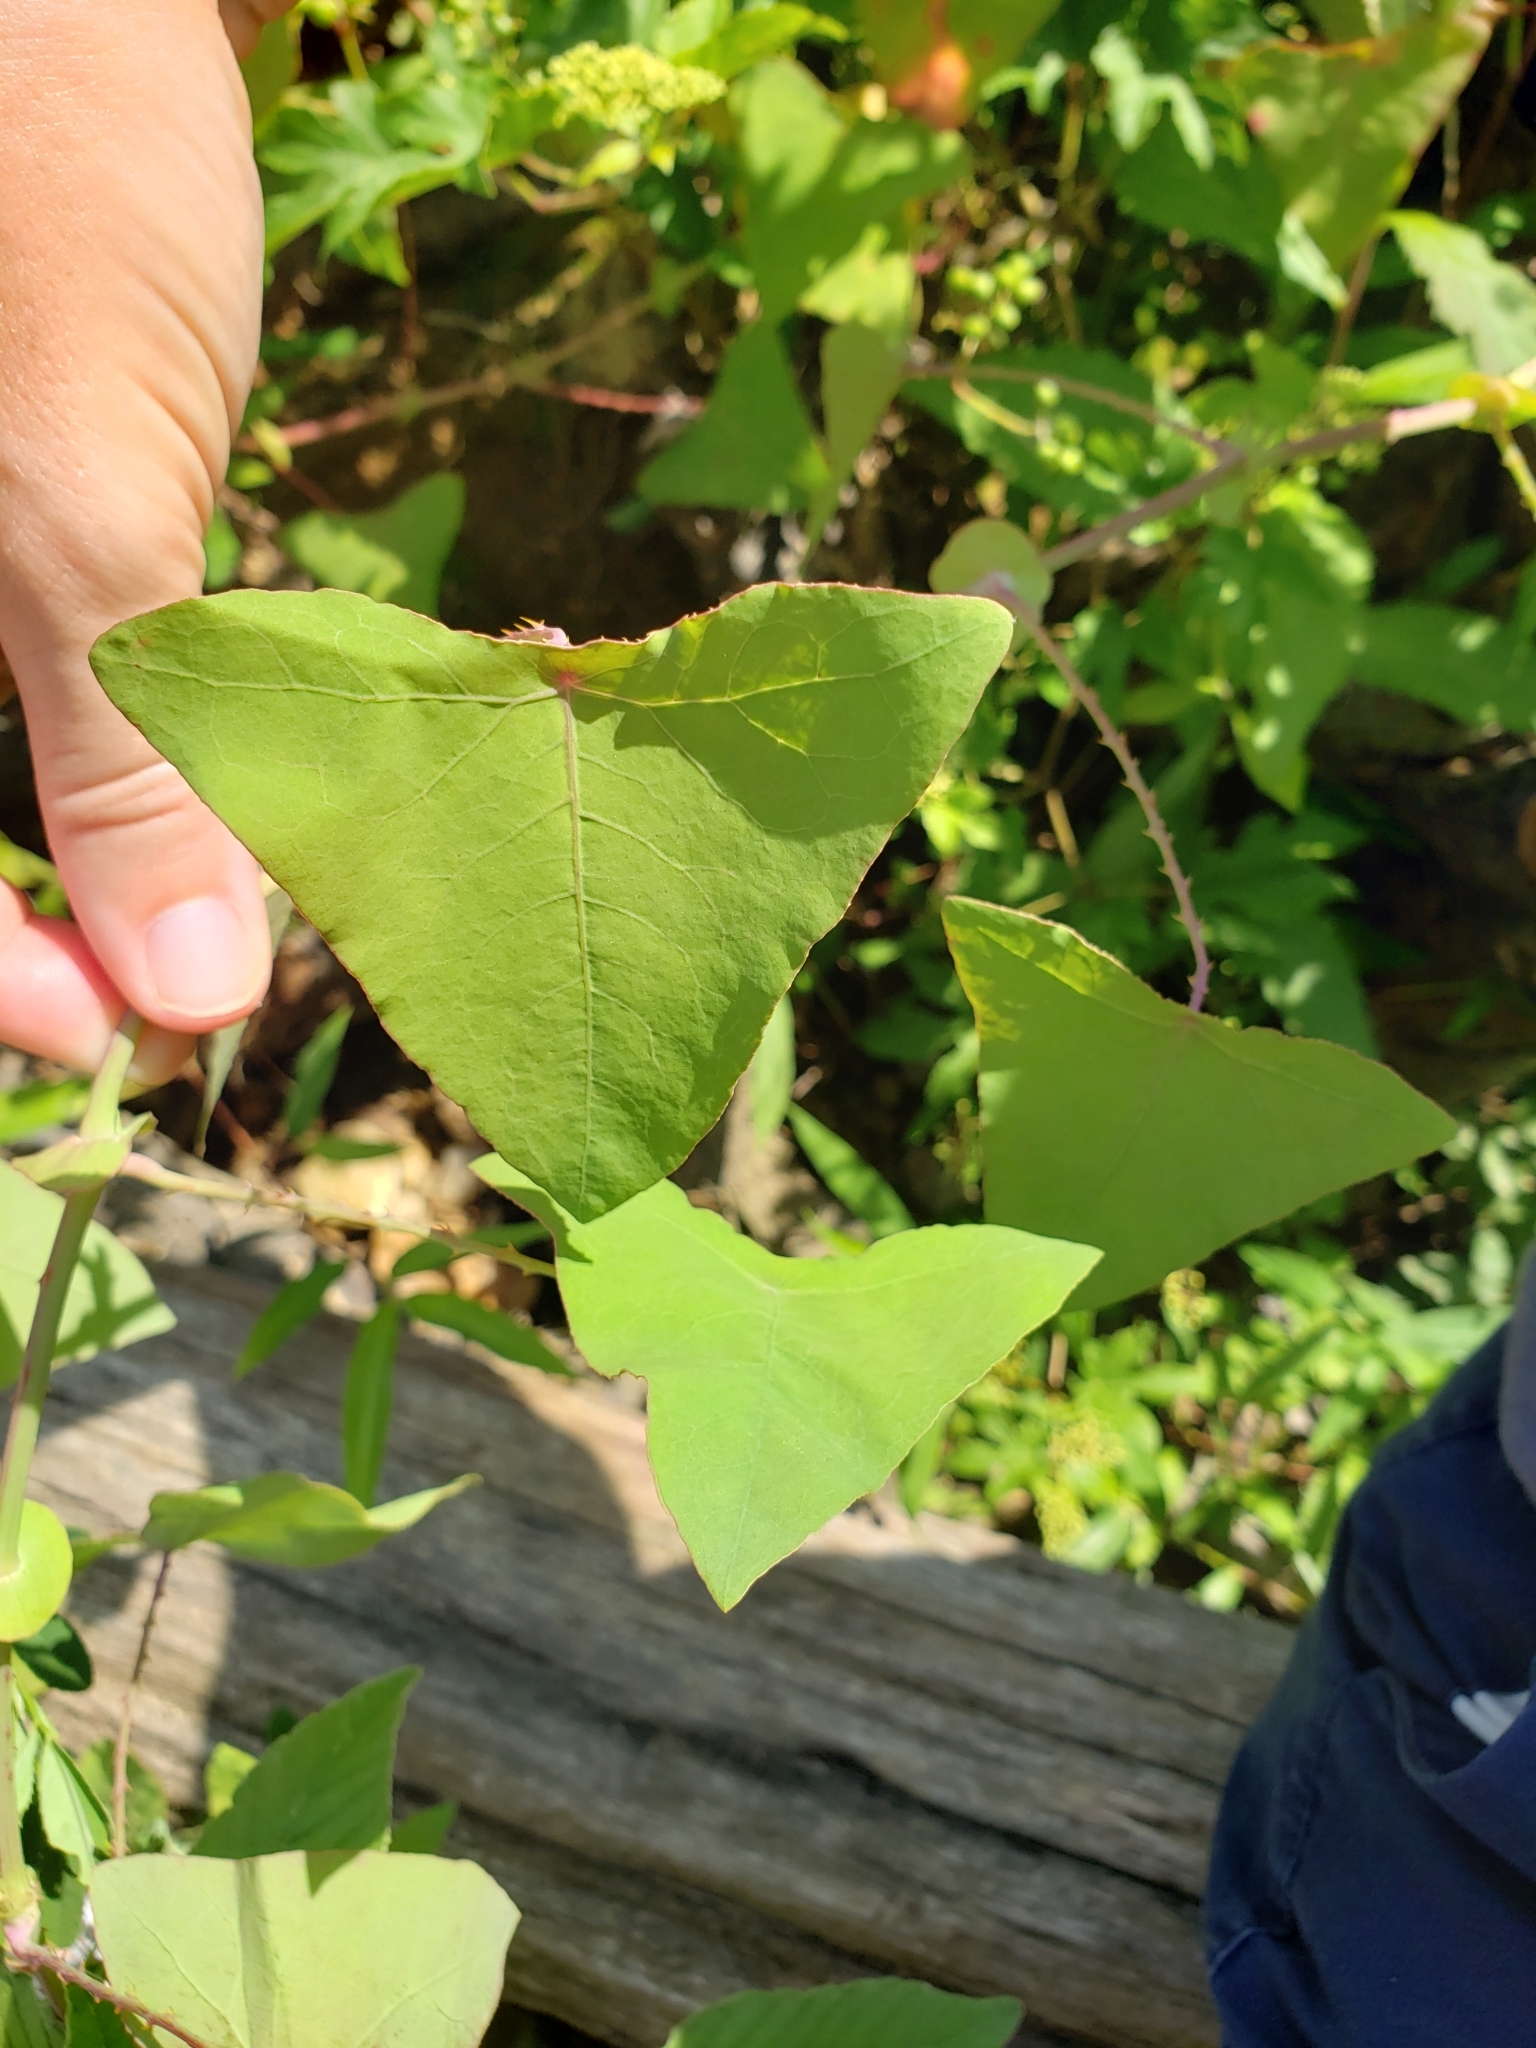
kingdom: Plantae
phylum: Tracheophyta
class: Magnoliopsida
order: Caryophyllales
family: Polygonaceae
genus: Persicaria
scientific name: Persicaria perfoliata
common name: Asiatic tearthumb
